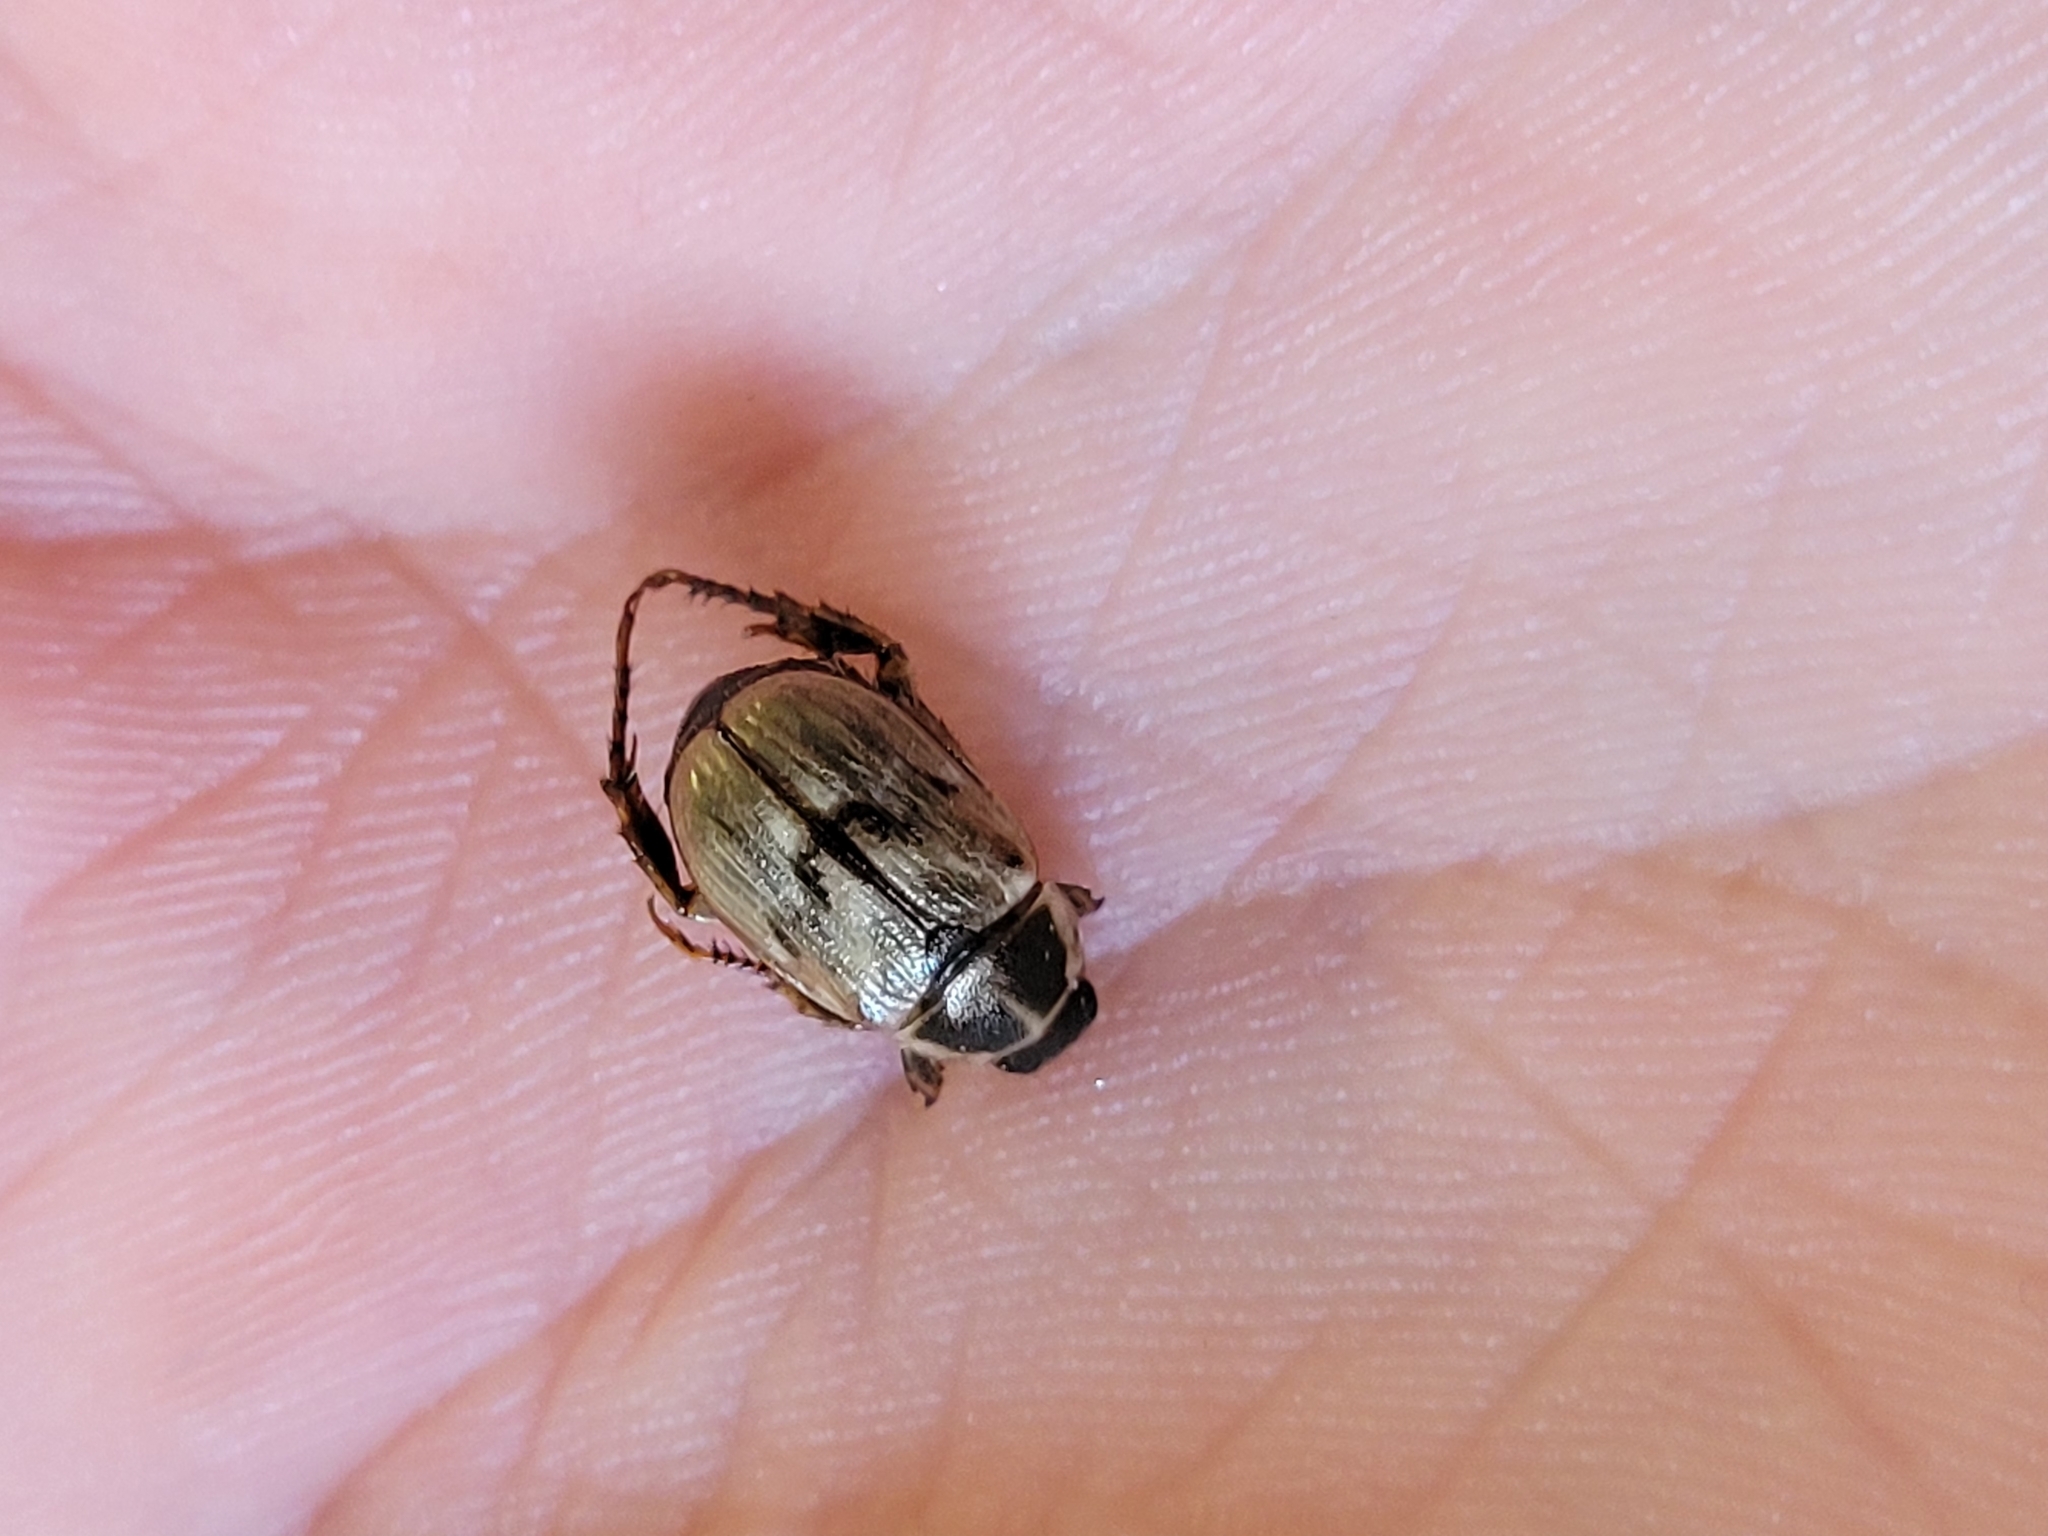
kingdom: Animalia
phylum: Arthropoda
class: Insecta
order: Coleoptera
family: Scarabaeidae
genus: Exomala
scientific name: Exomala orientalis
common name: Oriental beetle
